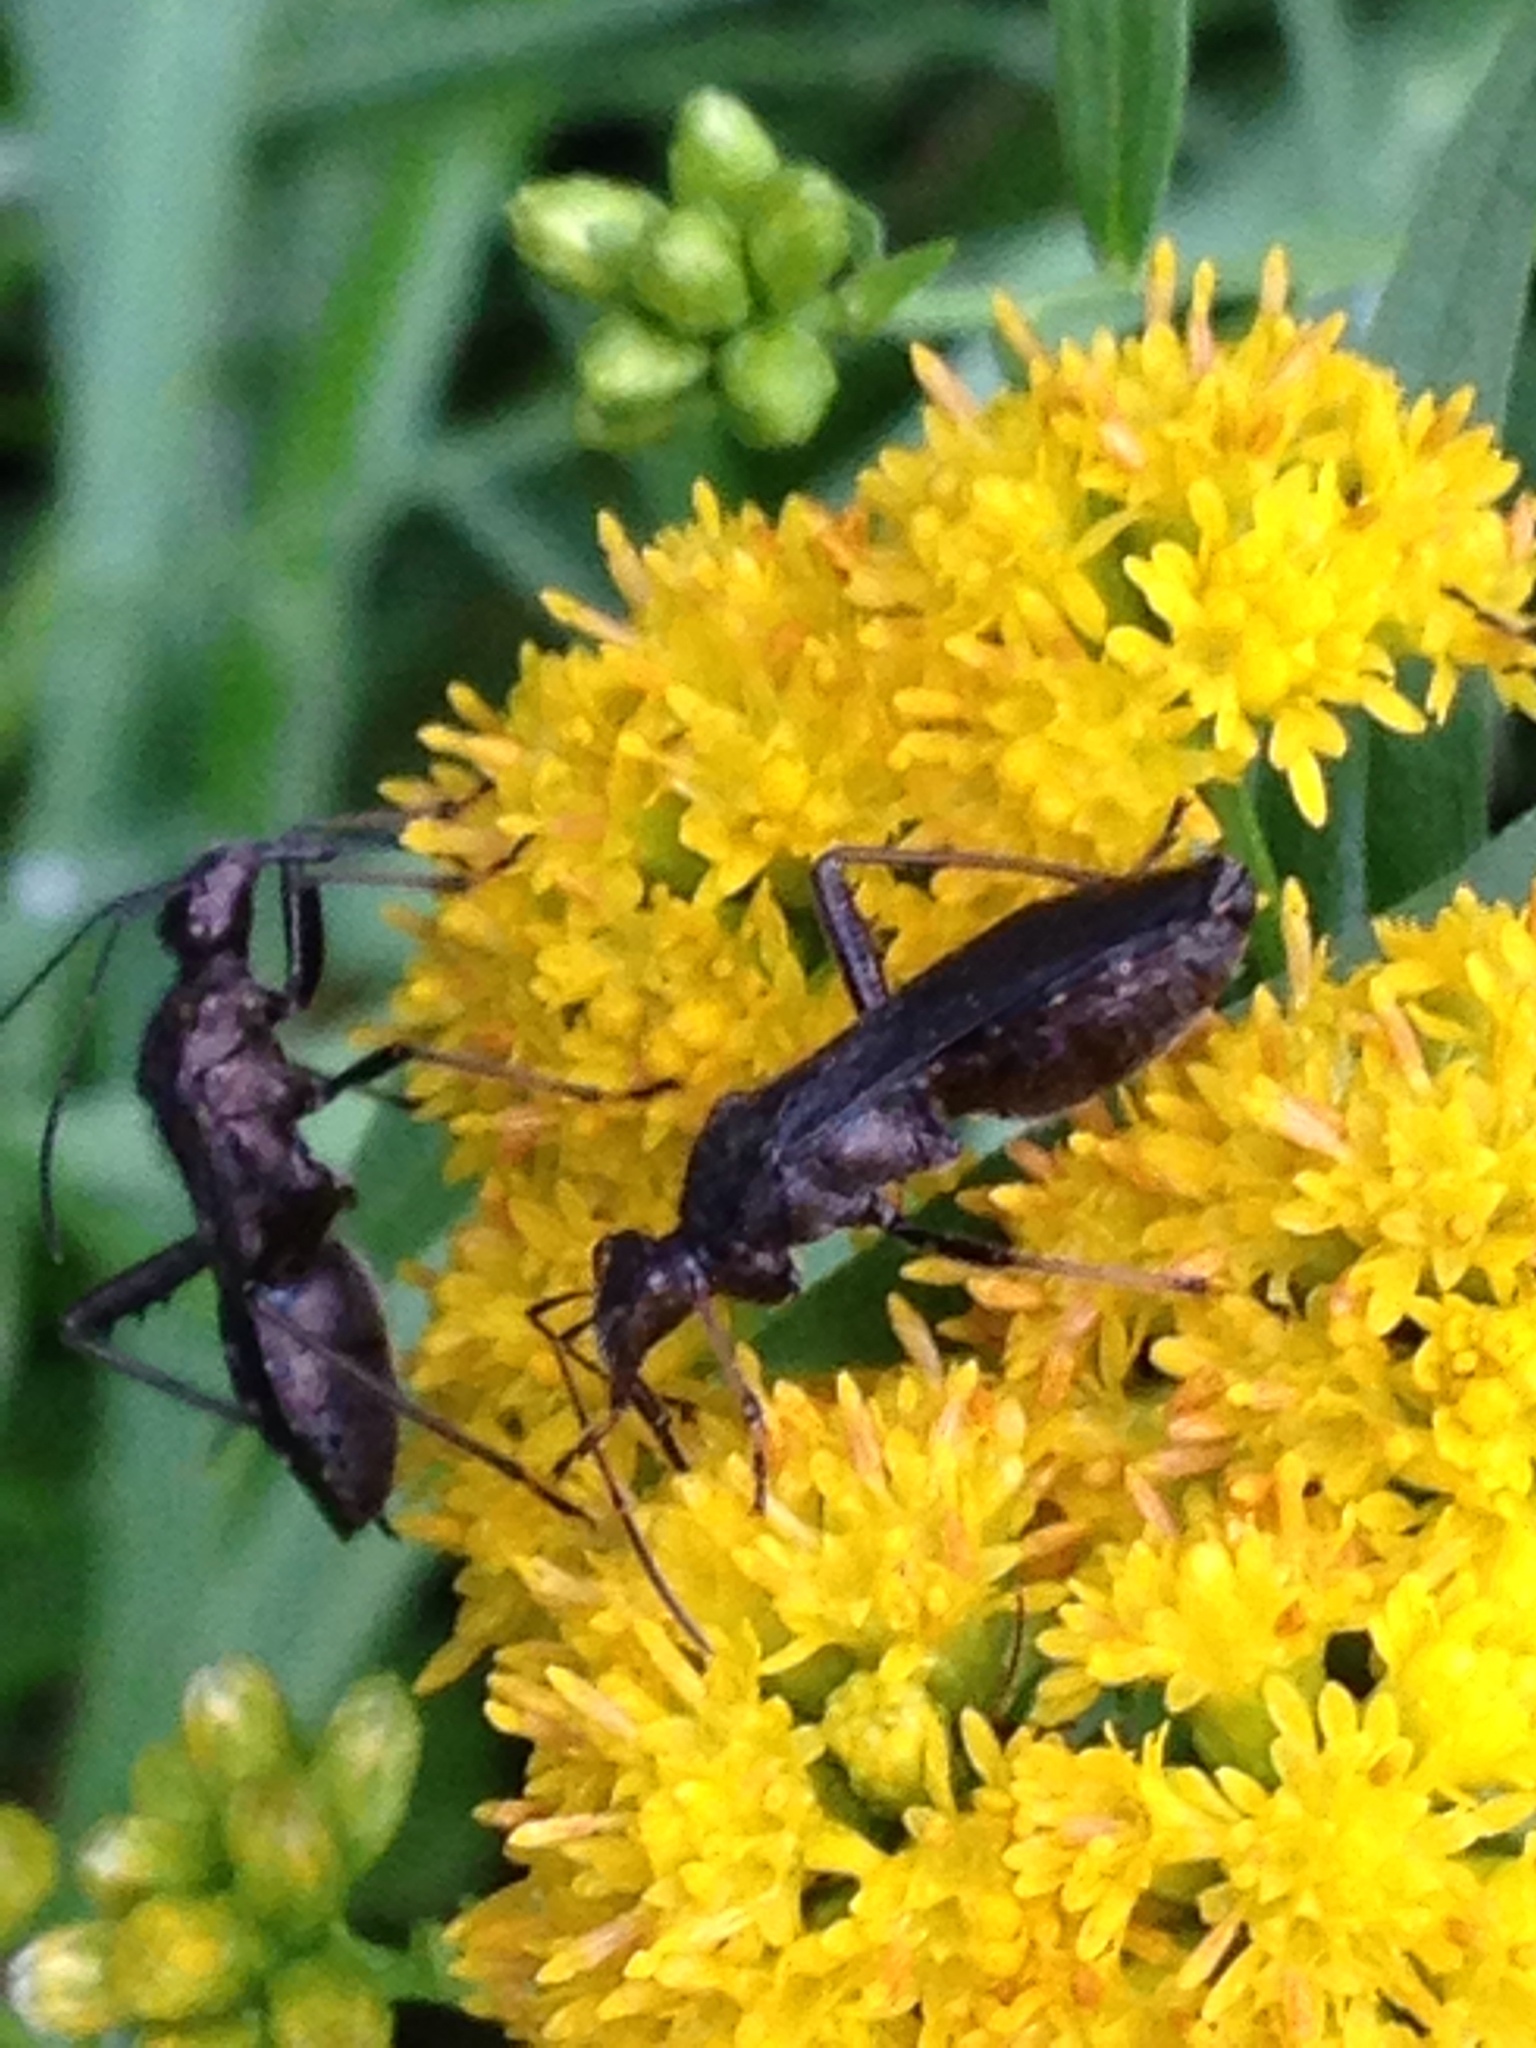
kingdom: Animalia
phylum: Arthropoda
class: Insecta
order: Hemiptera
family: Alydidae
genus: Alydus
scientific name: Alydus eurinus
